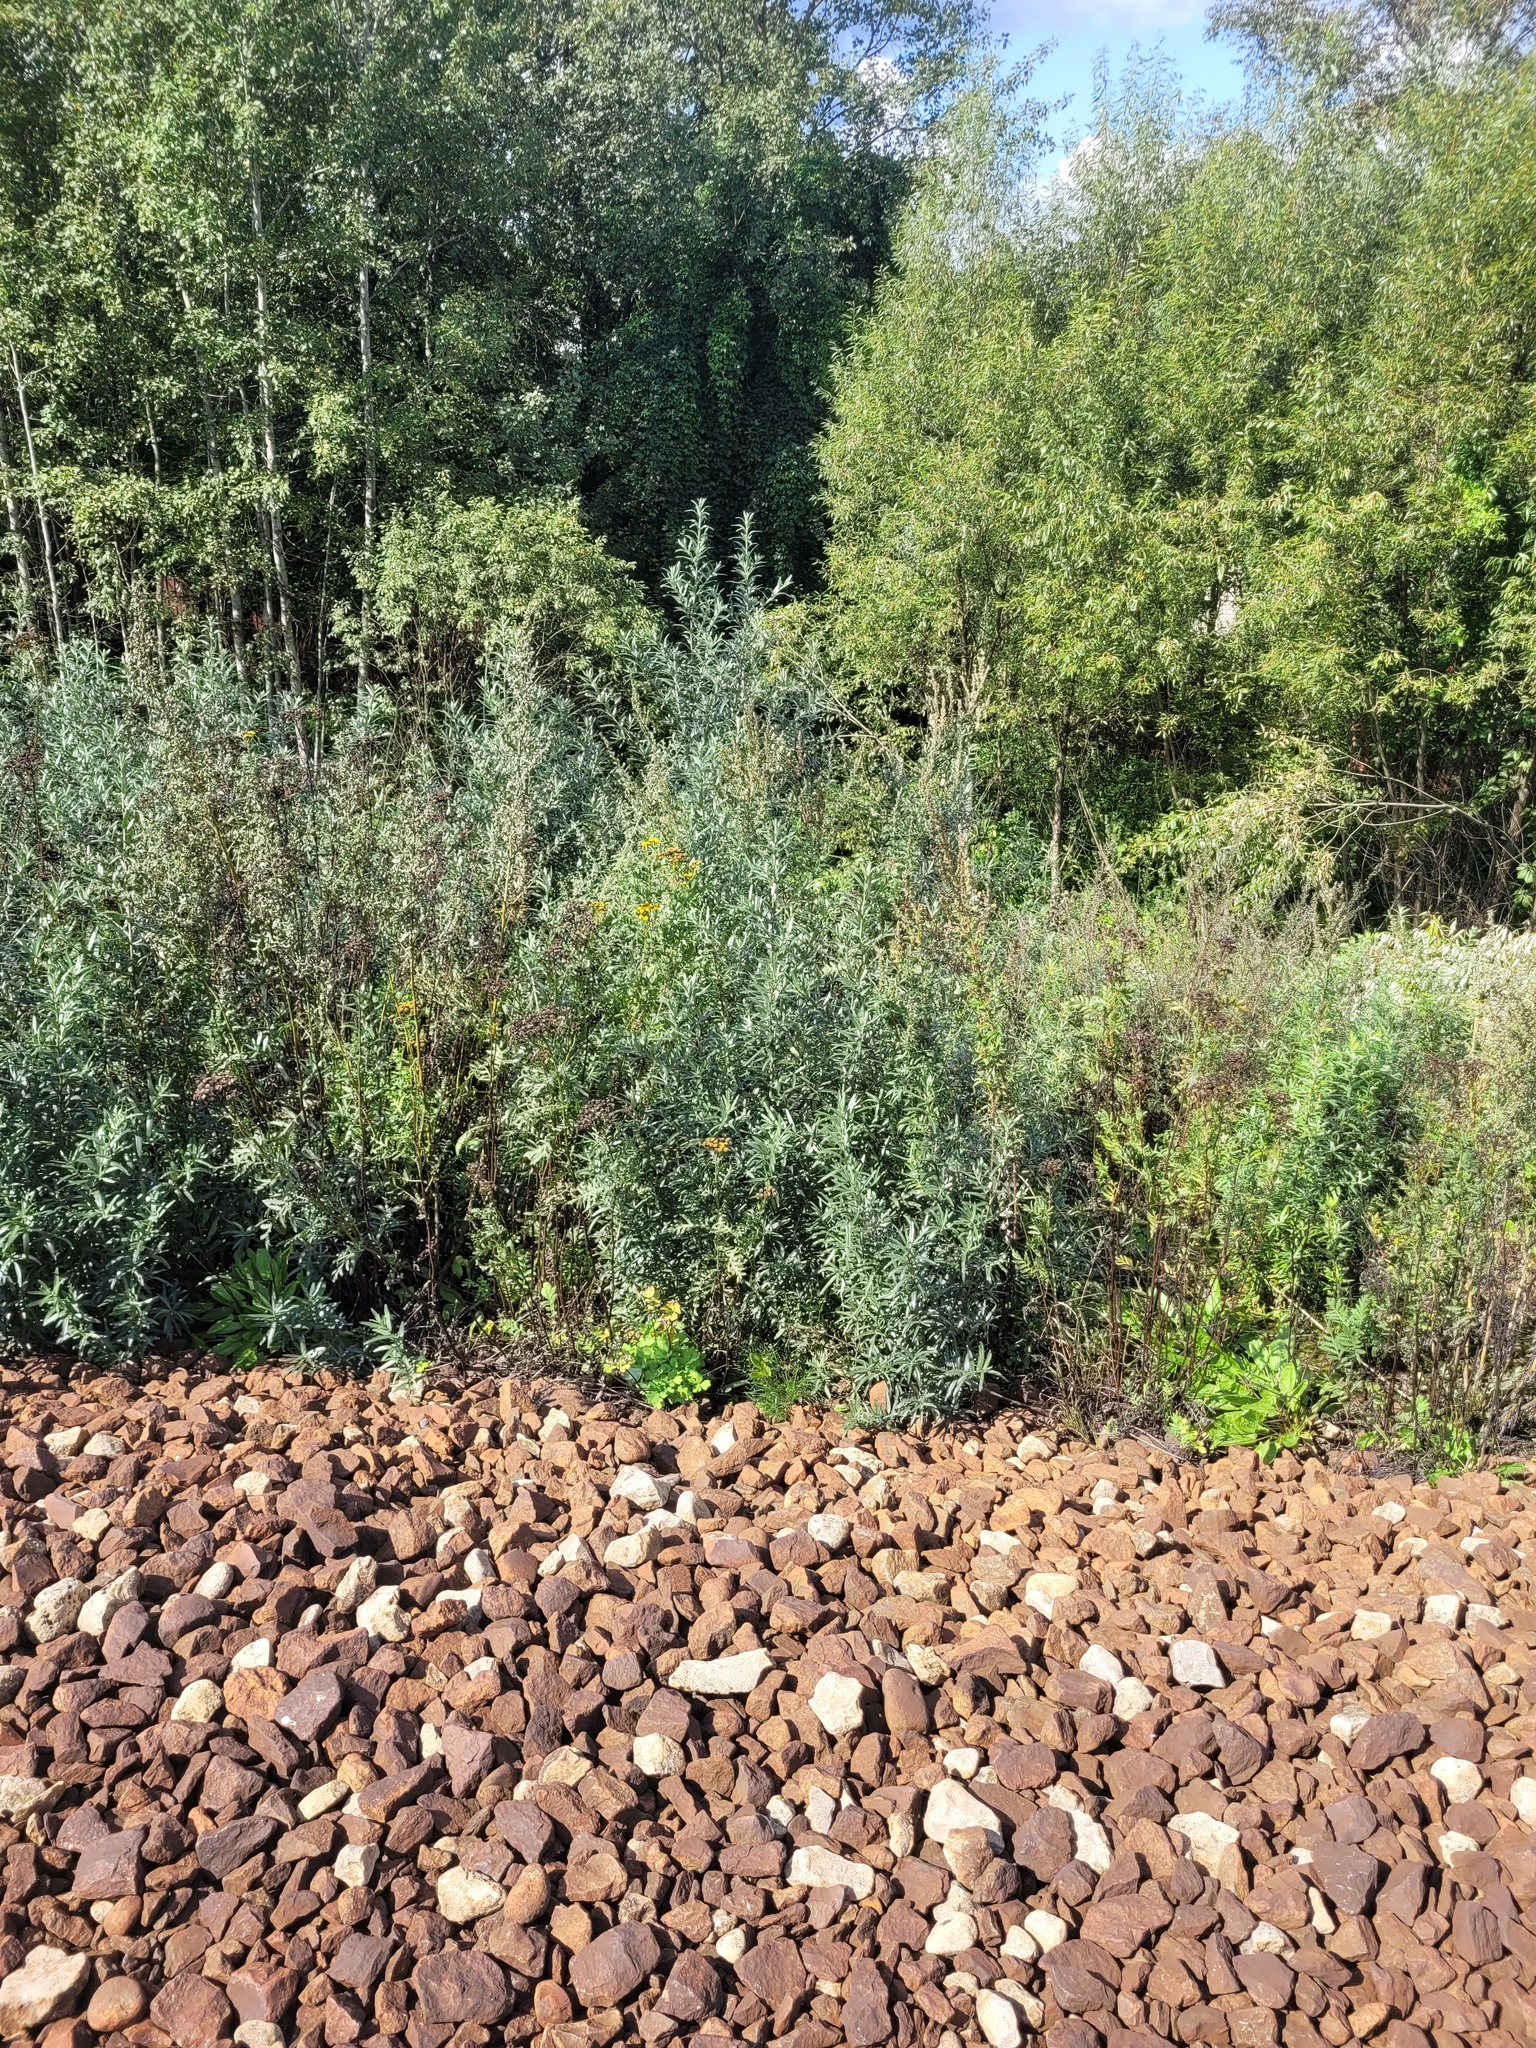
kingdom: Plantae
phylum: Tracheophyta
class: Magnoliopsida
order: Rosales
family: Elaeagnaceae
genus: Hippophae
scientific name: Hippophae rhamnoides
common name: Sea-buckthorn
